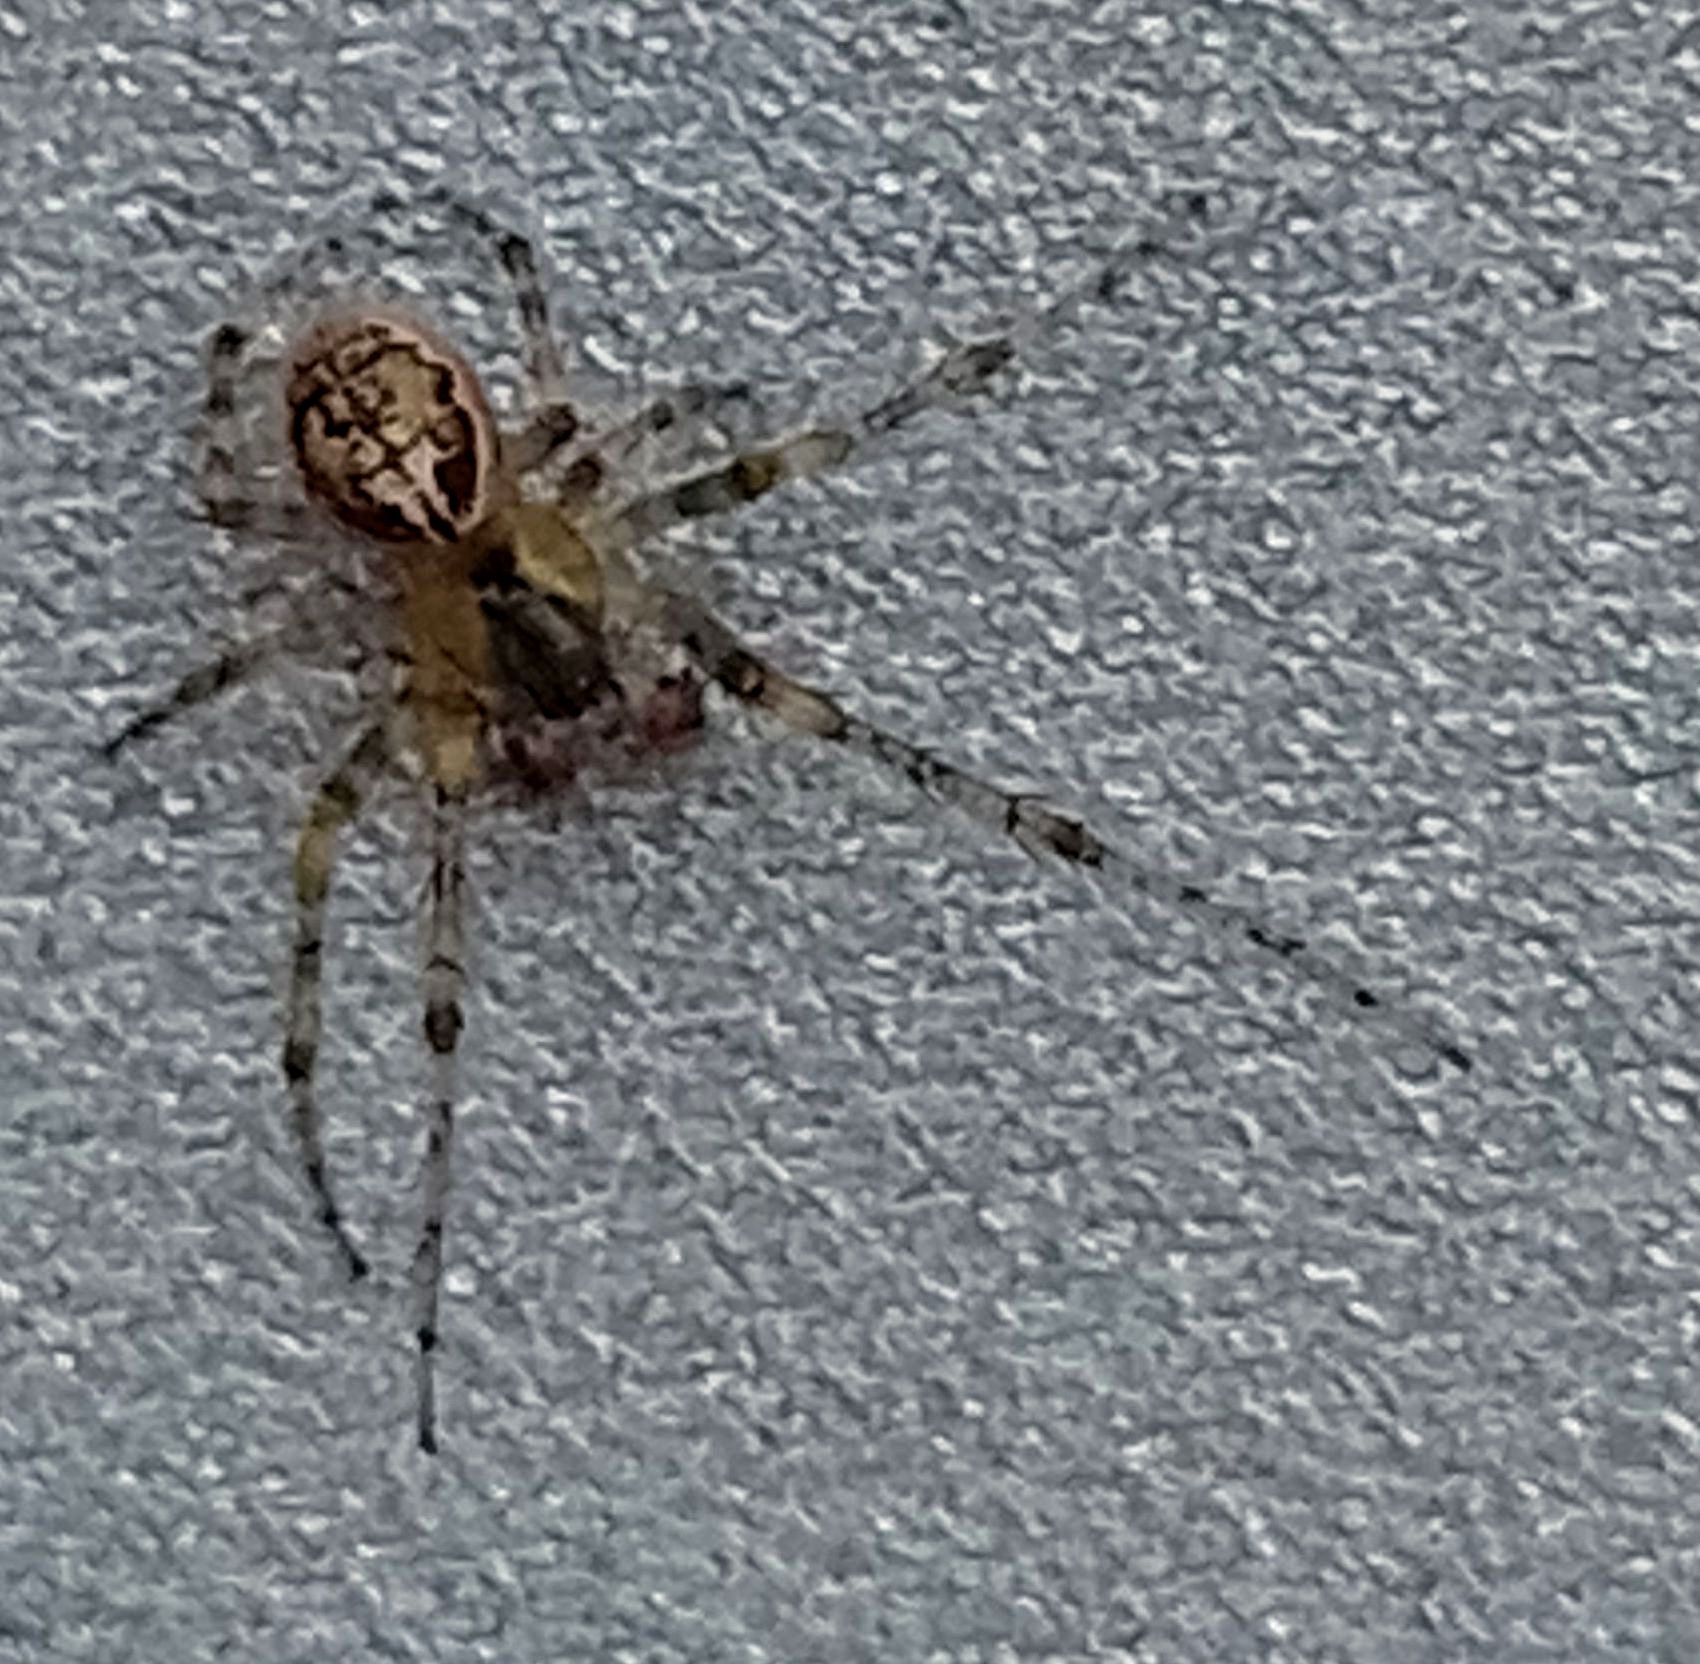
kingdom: Animalia
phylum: Arthropoda
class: Arachnida
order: Araneae
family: Araneidae
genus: Zygiella
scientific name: Zygiella x-notata
